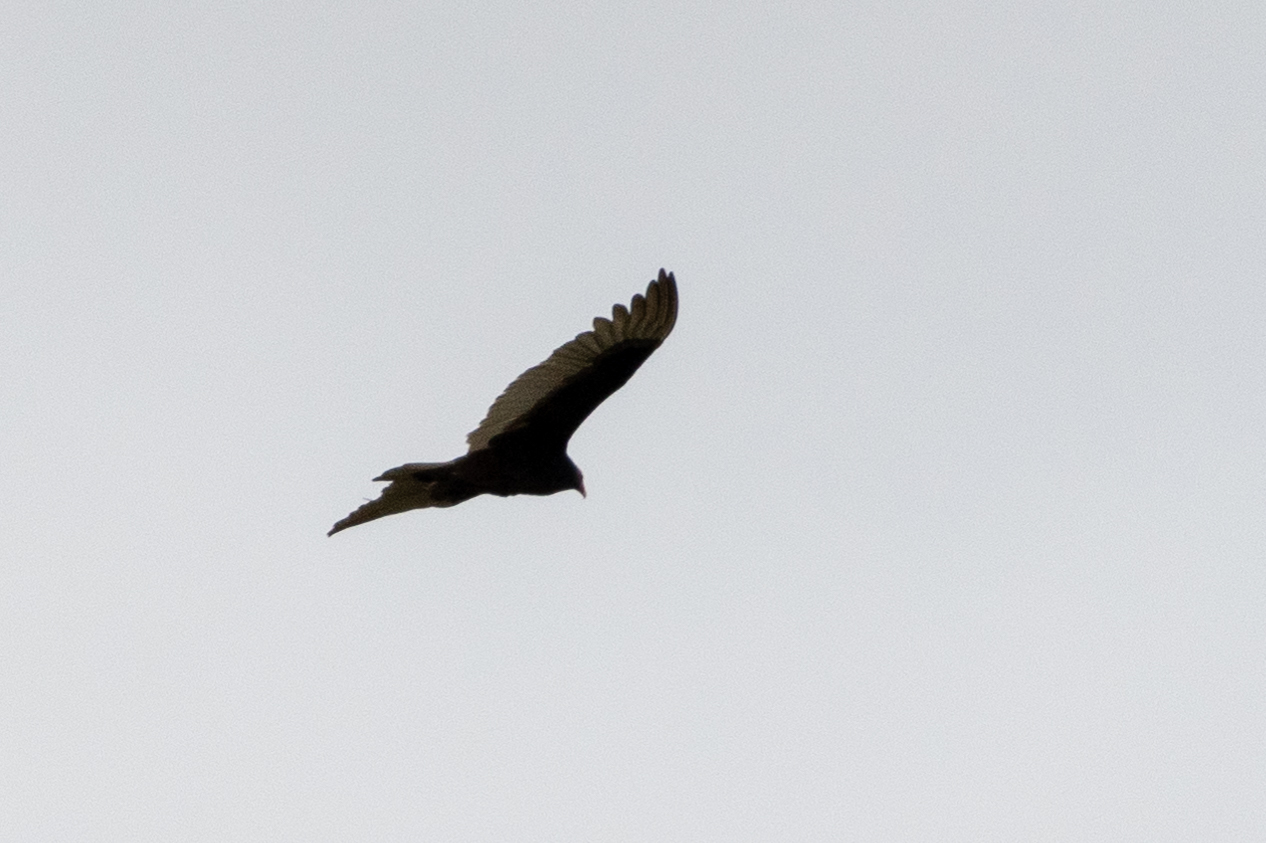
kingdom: Animalia
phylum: Chordata
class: Aves
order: Accipitriformes
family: Cathartidae
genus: Cathartes
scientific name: Cathartes aura
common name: Turkey vulture
